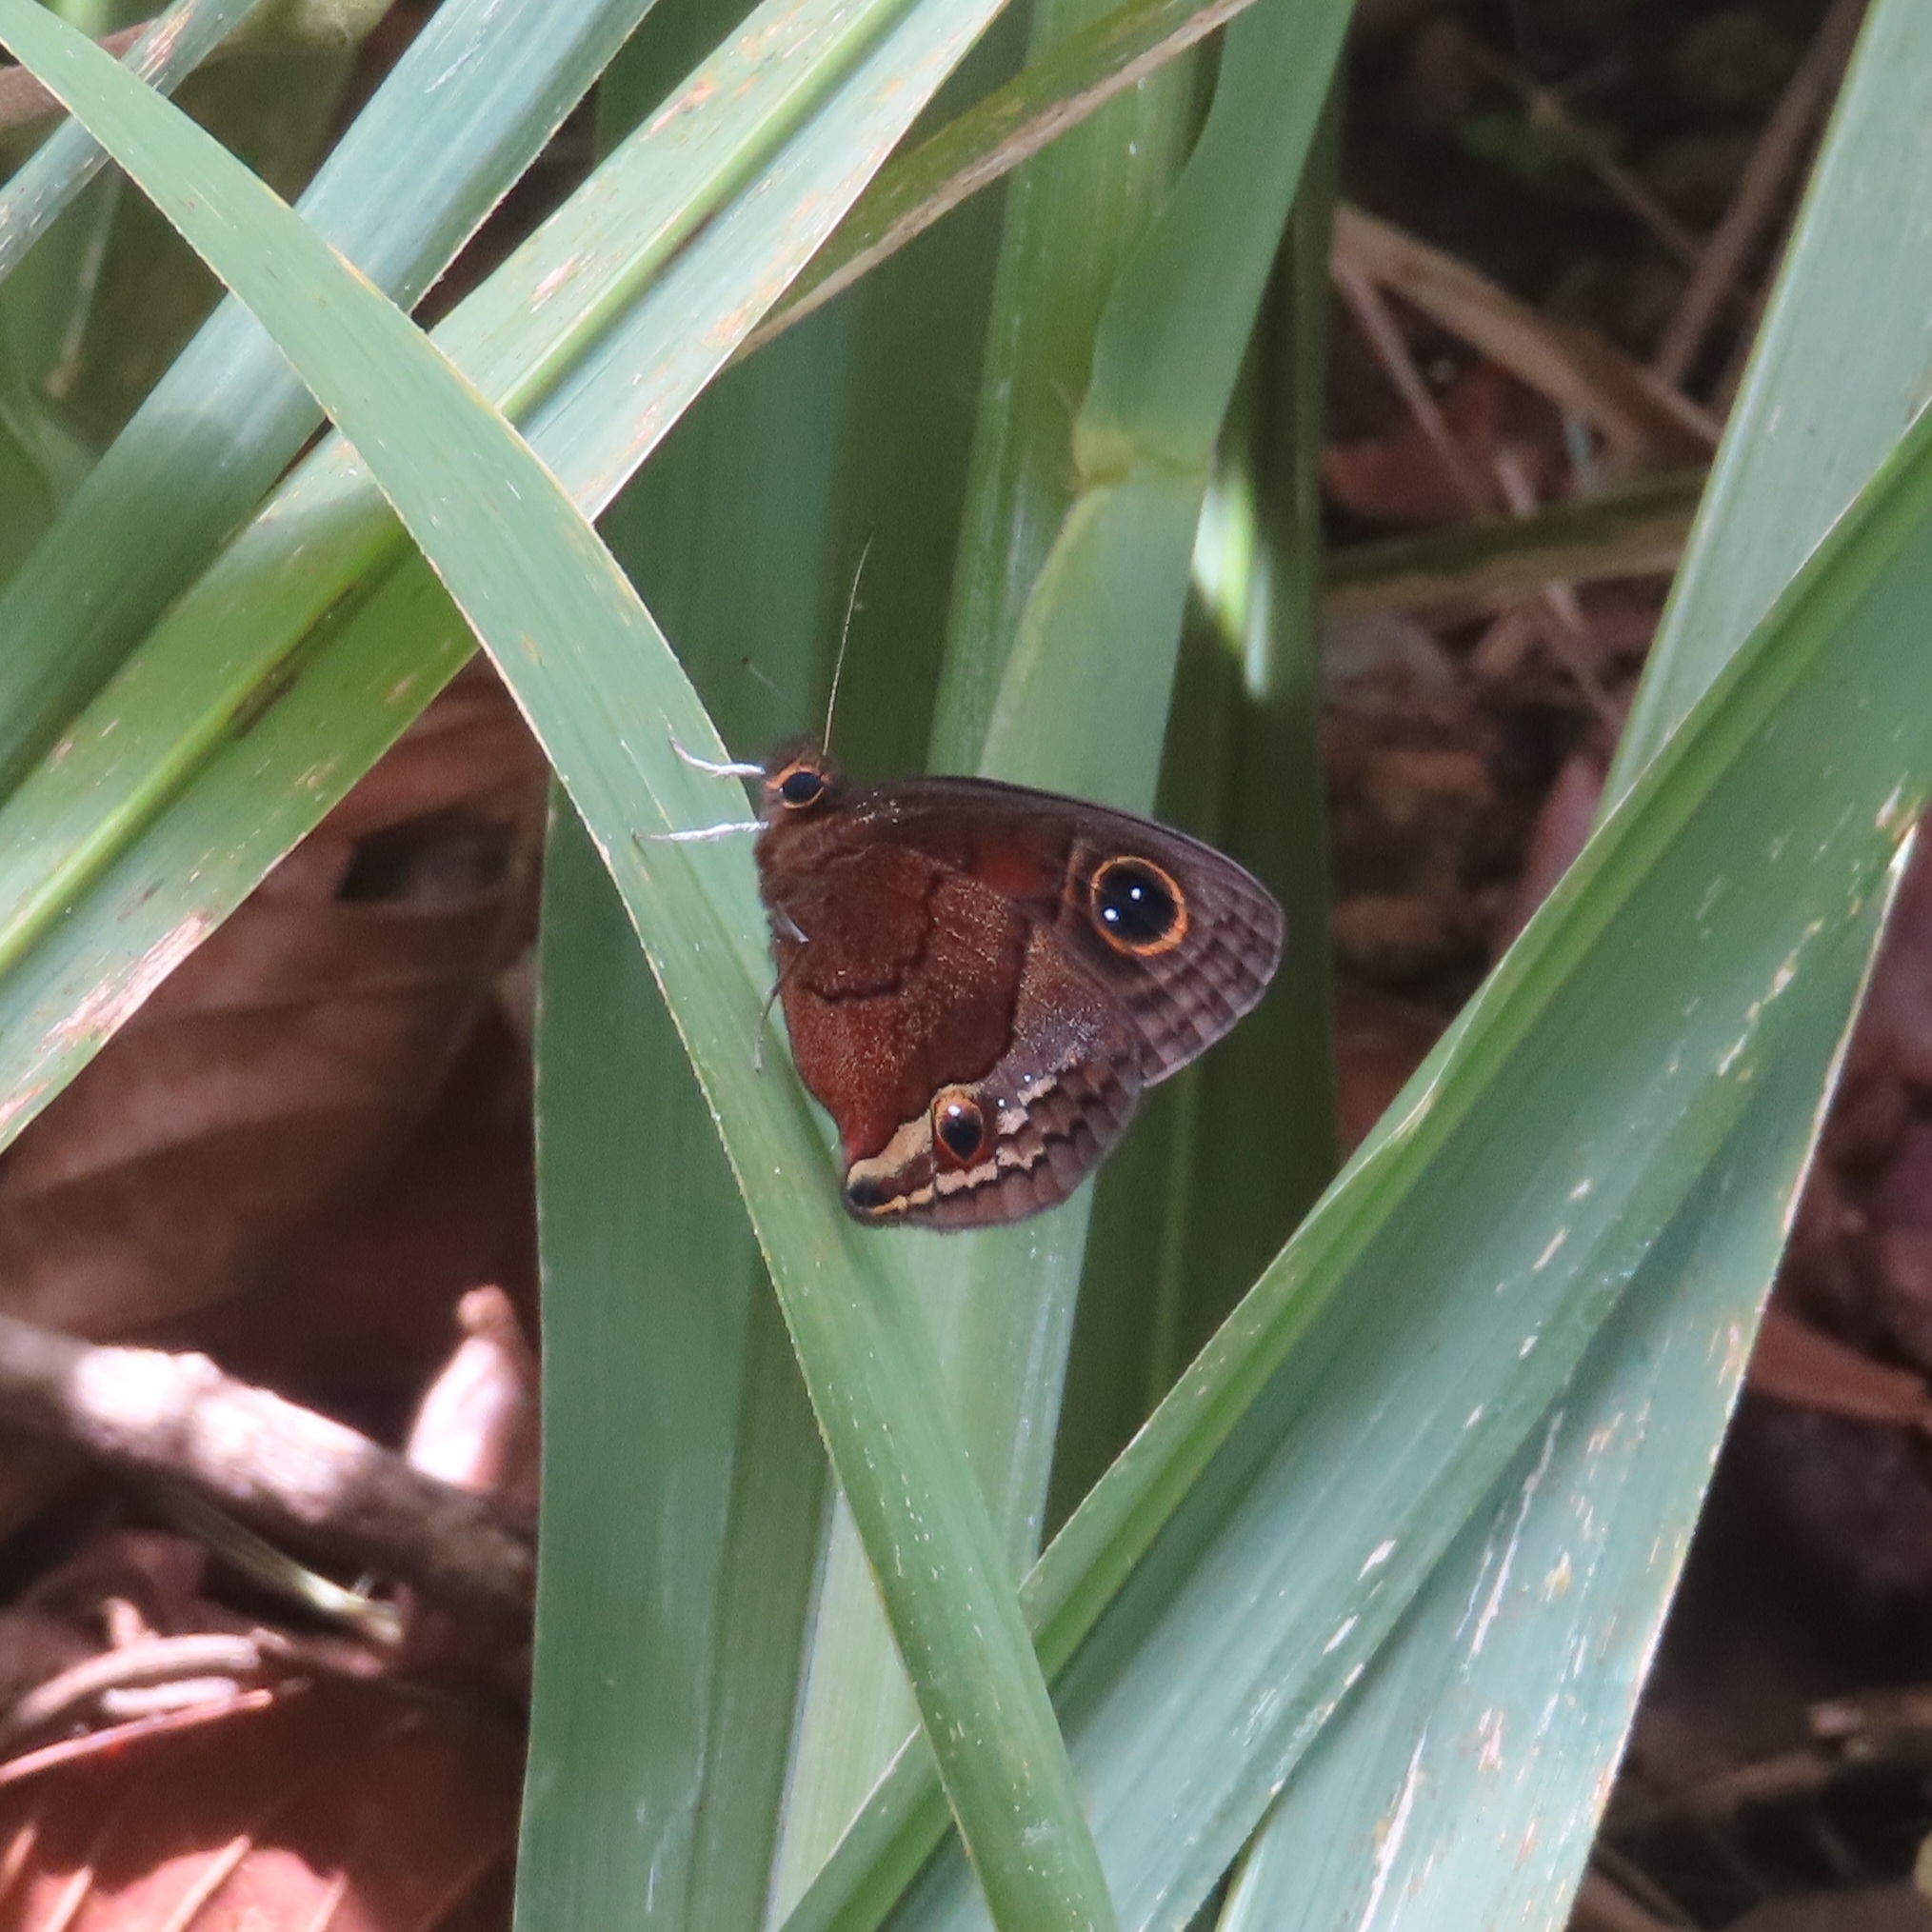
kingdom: Animalia
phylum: Arthropoda
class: Insecta
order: Lepidoptera
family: Nymphalidae
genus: Calisto
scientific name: Calisto nubila
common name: Puerto rican calisto
